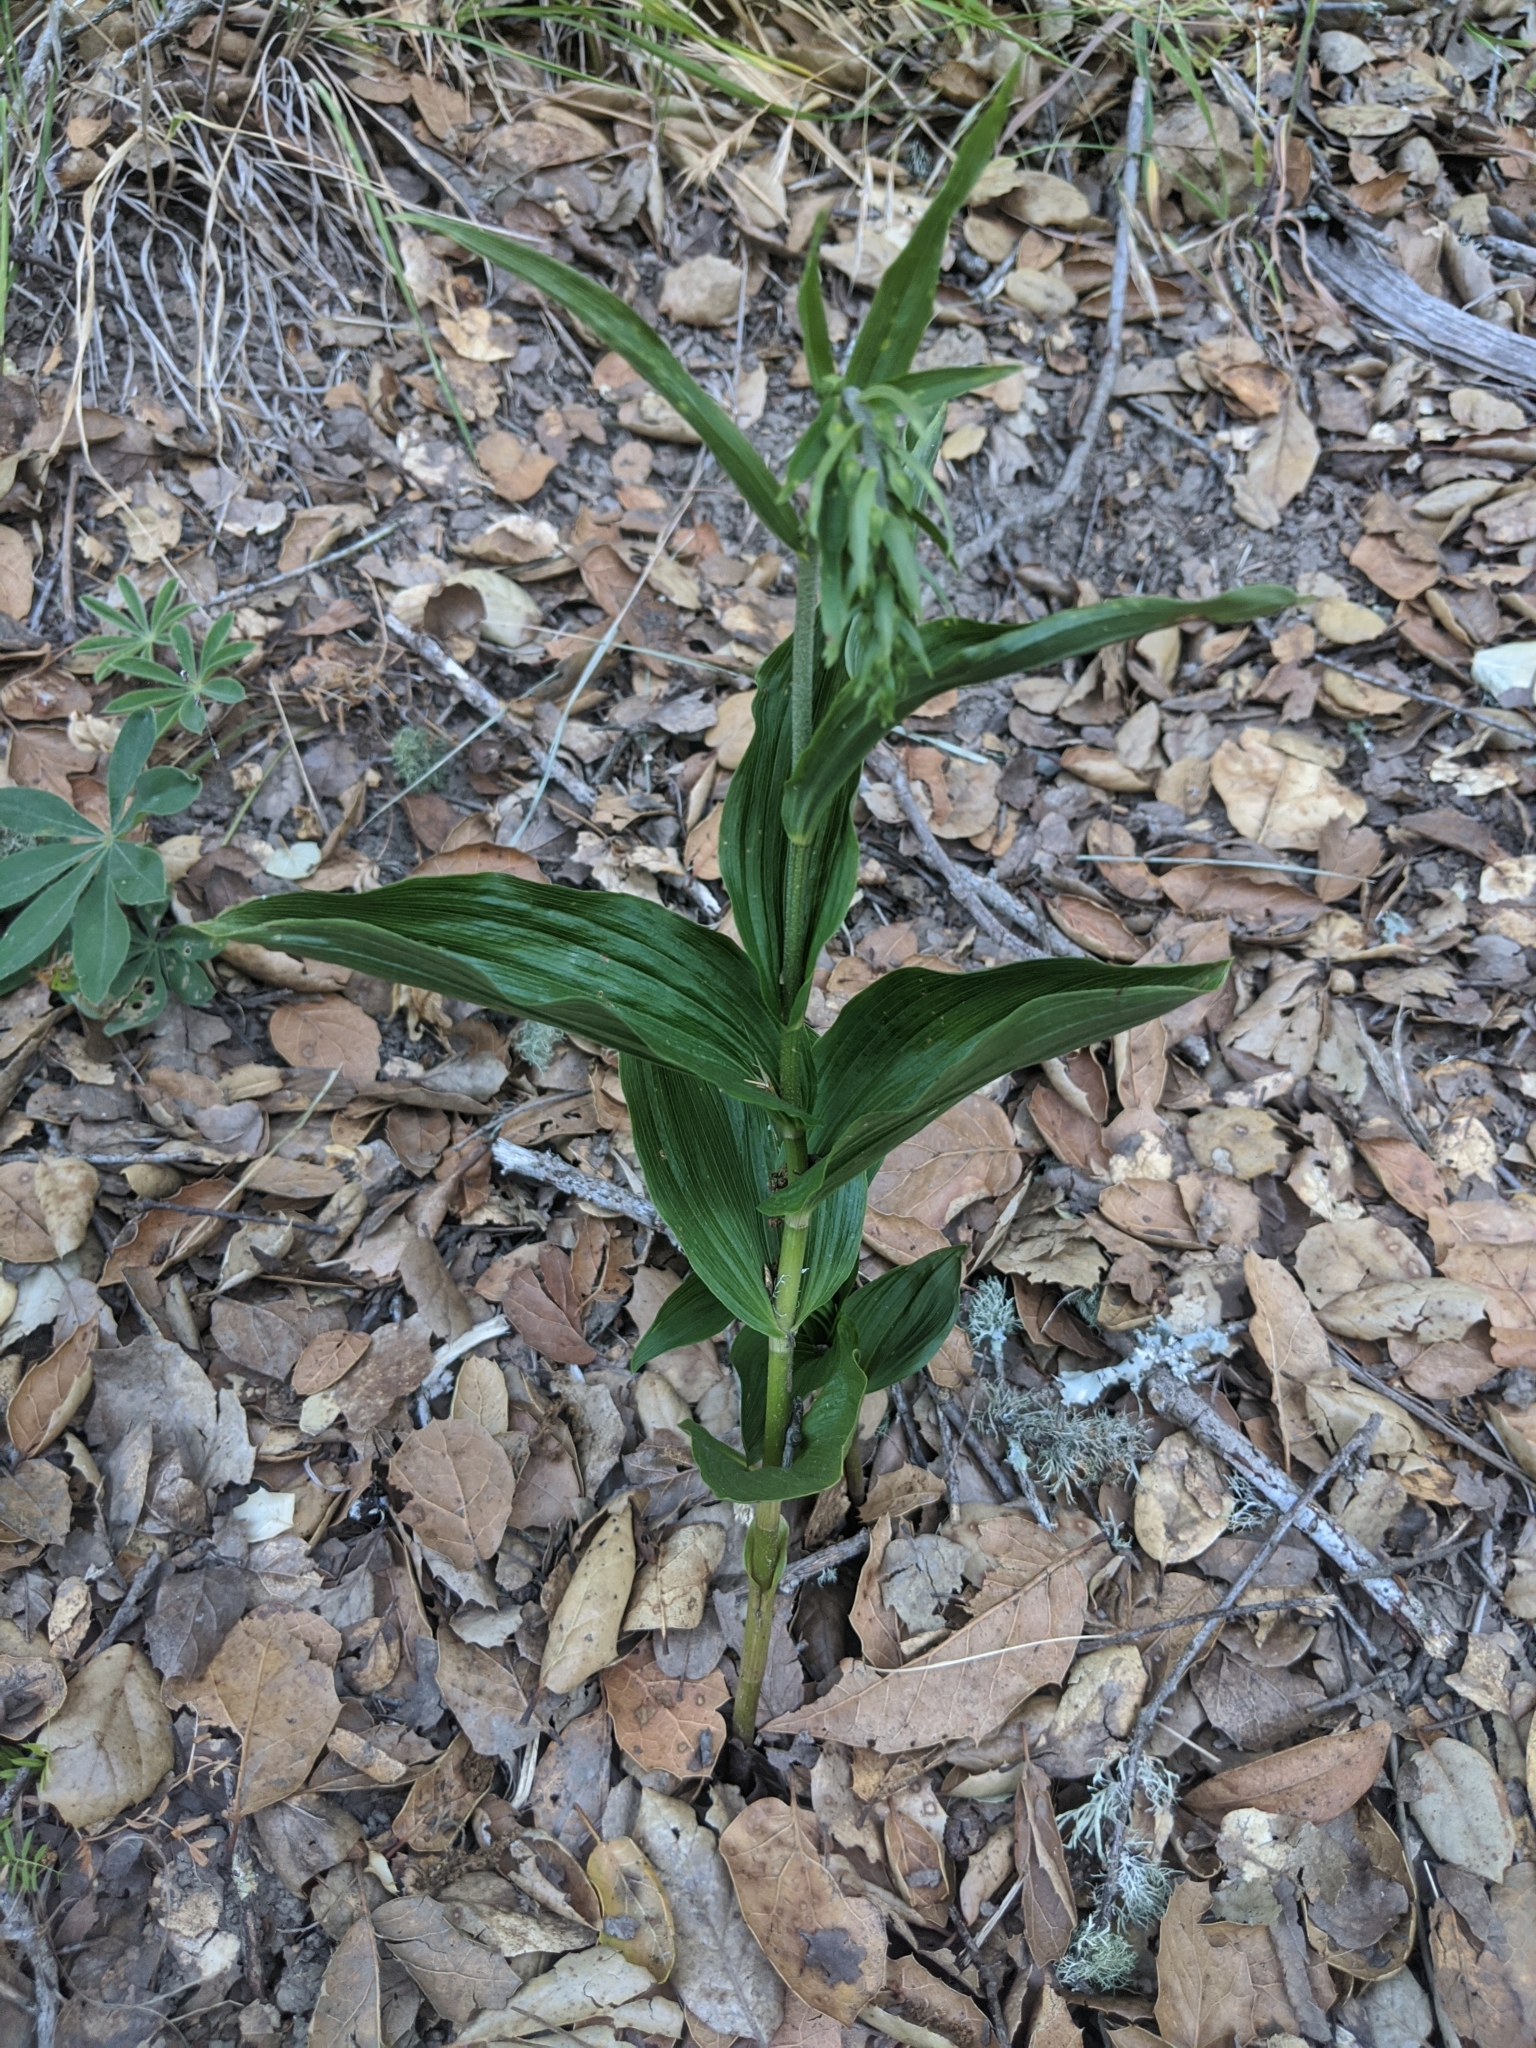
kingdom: Plantae
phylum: Tracheophyta
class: Liliopsida
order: Asparagales
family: Orchidaceae
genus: Epipactis
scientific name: Epipactis helleborine
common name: Broad-leaved helleborine
